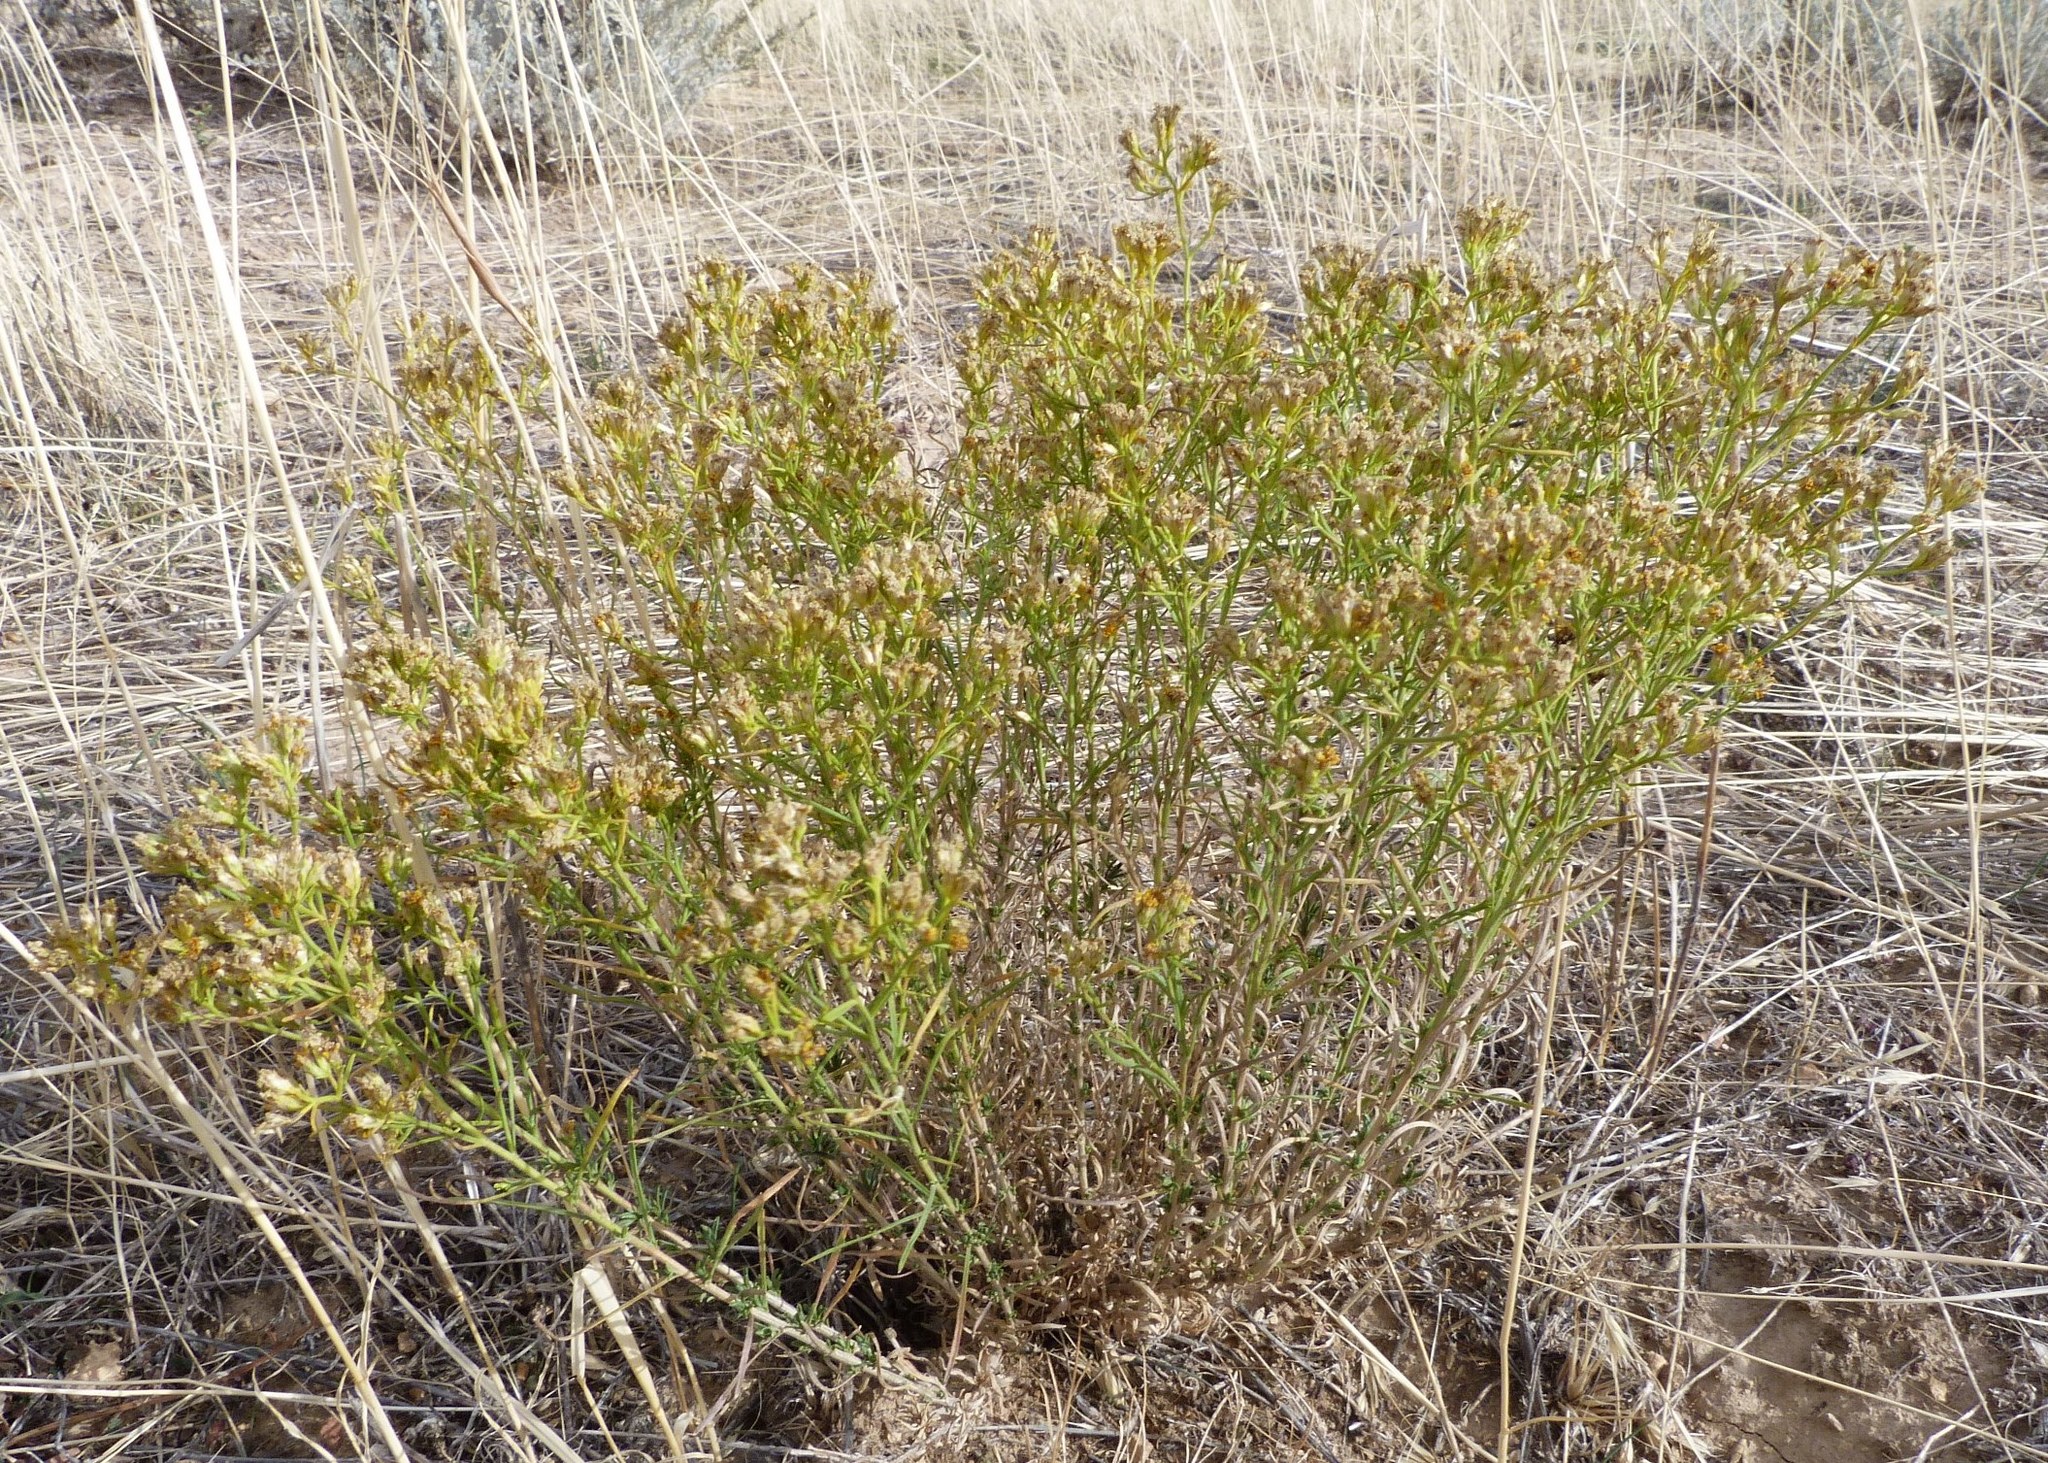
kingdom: Plantae
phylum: Tracheophyta
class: Magnoliopsida
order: Asterales
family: Asteraceae
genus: Gutierrezia
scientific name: Gutierrezia sarothrae
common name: Broom snakeweed
